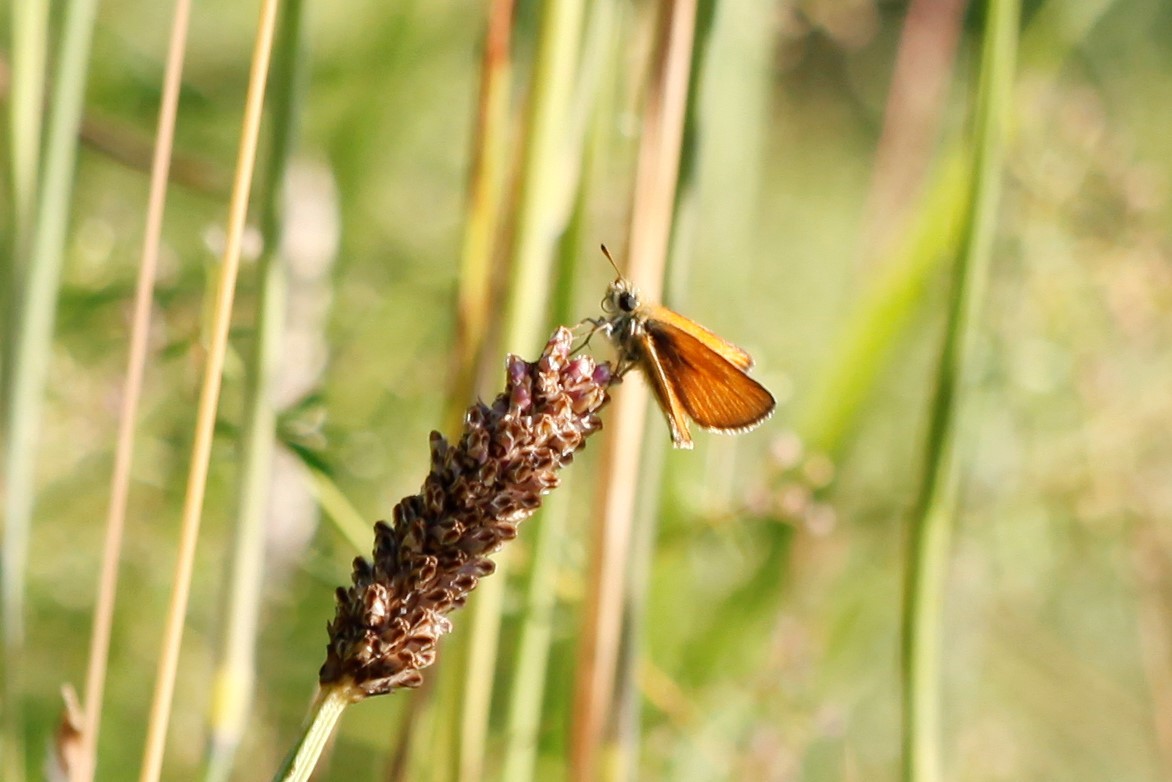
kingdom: Animalia
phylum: Arthropoda
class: Insecta
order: Lepidoptera
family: Hesperiidae
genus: Thymelicus
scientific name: Thymelicus lineola
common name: Essex skipper
